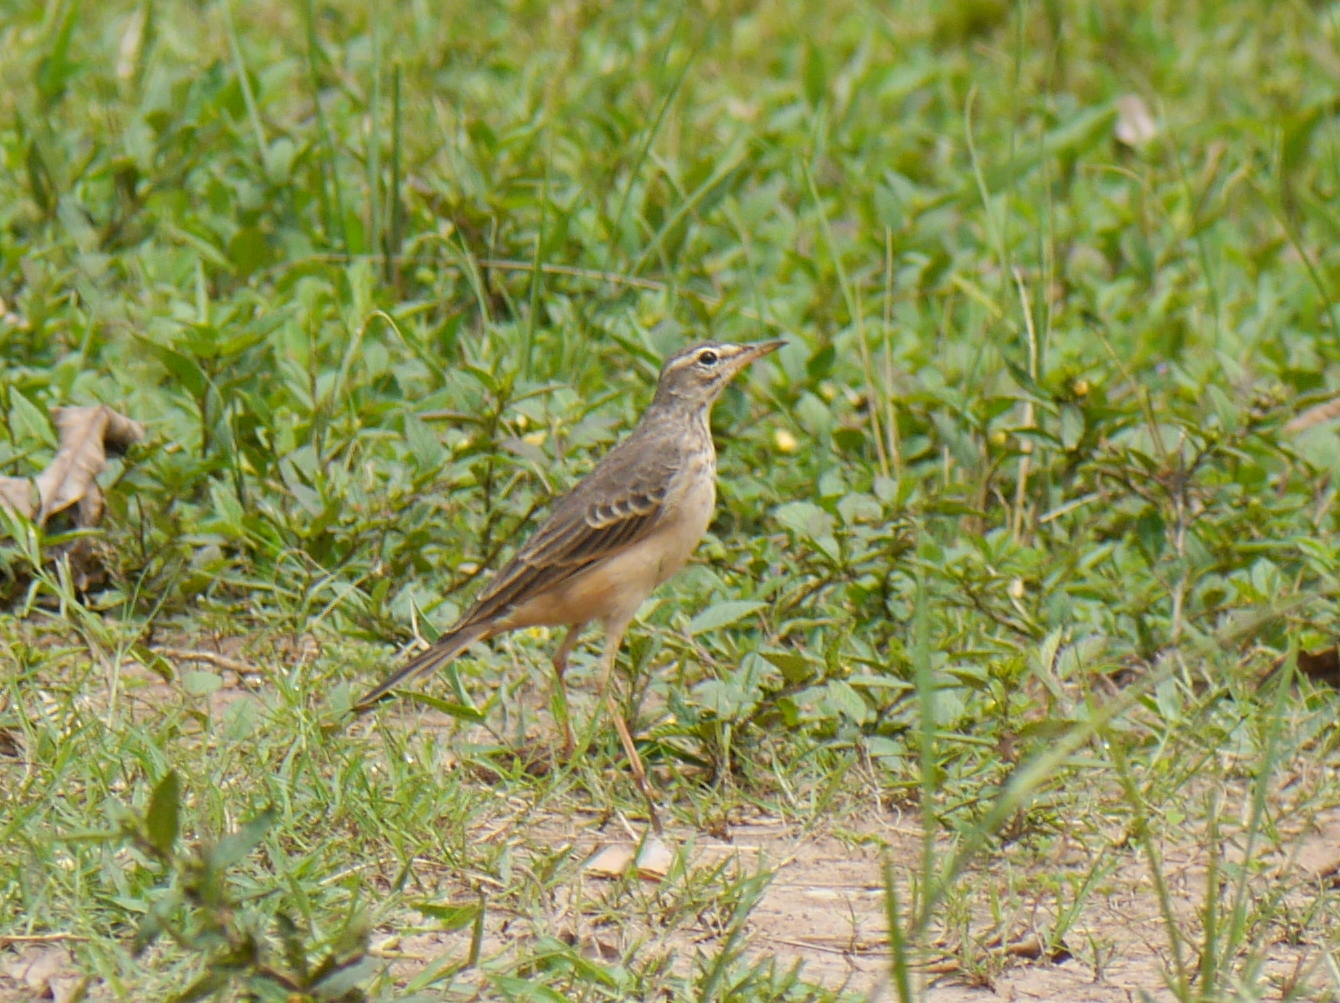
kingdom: Animalia
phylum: Chordata
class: Aves
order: Passeriformes
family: Motacillidae
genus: Anthus
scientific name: Anthus leucophrys
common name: Plain-backed pipit
